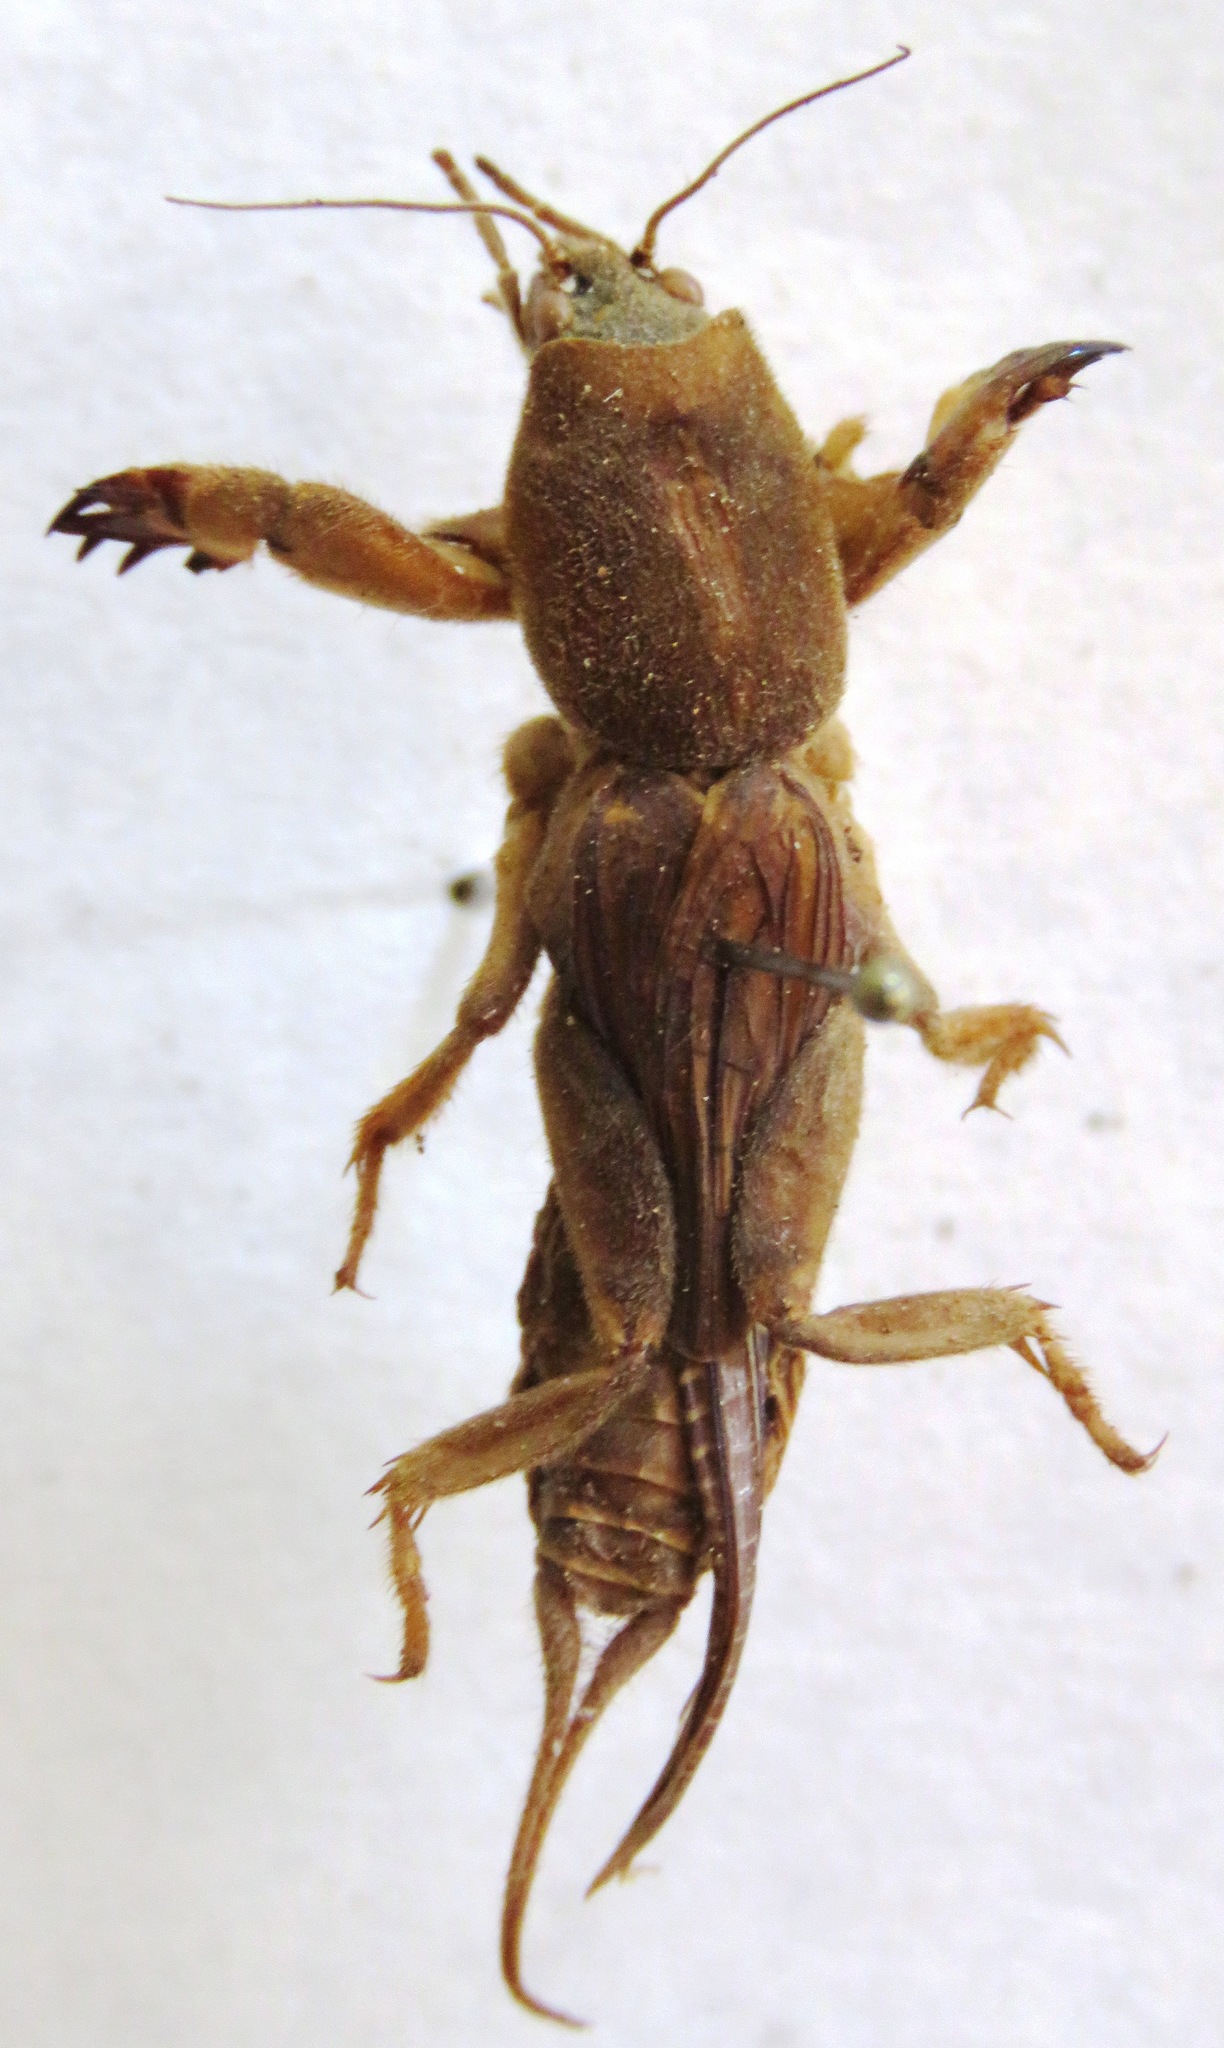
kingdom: Animalia
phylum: Arthropoda
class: Insecta
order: Orthoptera
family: Gryllotalpidae
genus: Neocurtilla
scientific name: Neocurtilla hexadactyla
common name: Northern mole cricket
